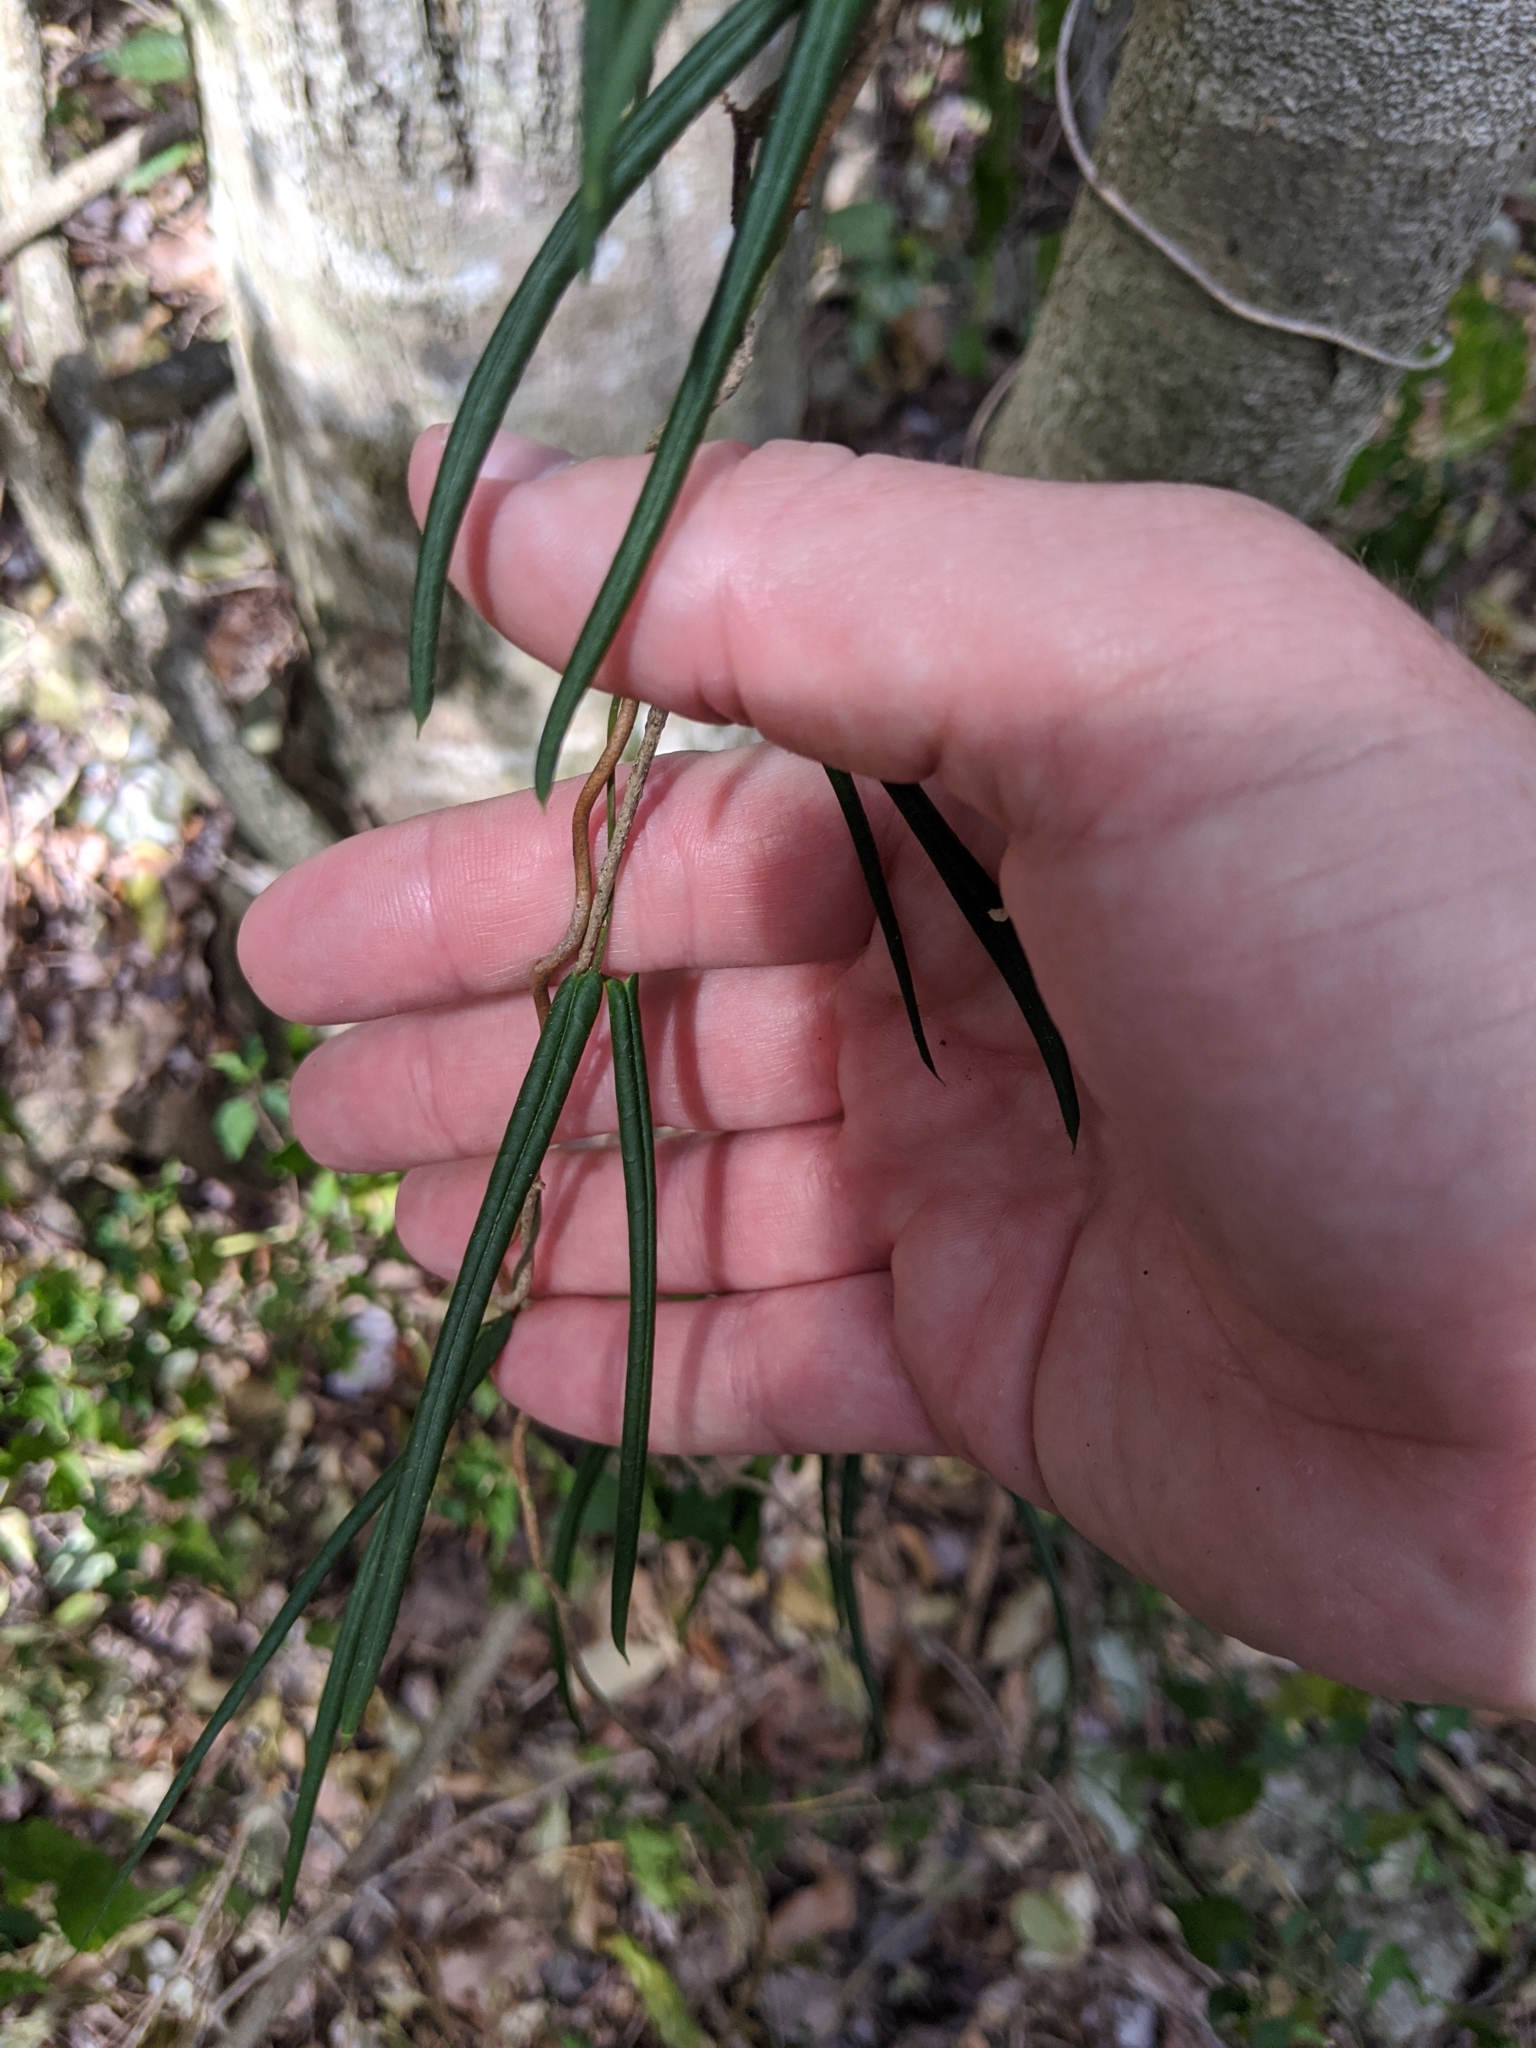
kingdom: Plantae
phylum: Tracheophyta
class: Magnoliopsida
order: Gentianales
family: Apocynaceae
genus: Parsonsia
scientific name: Parsonsia paulforsteri
